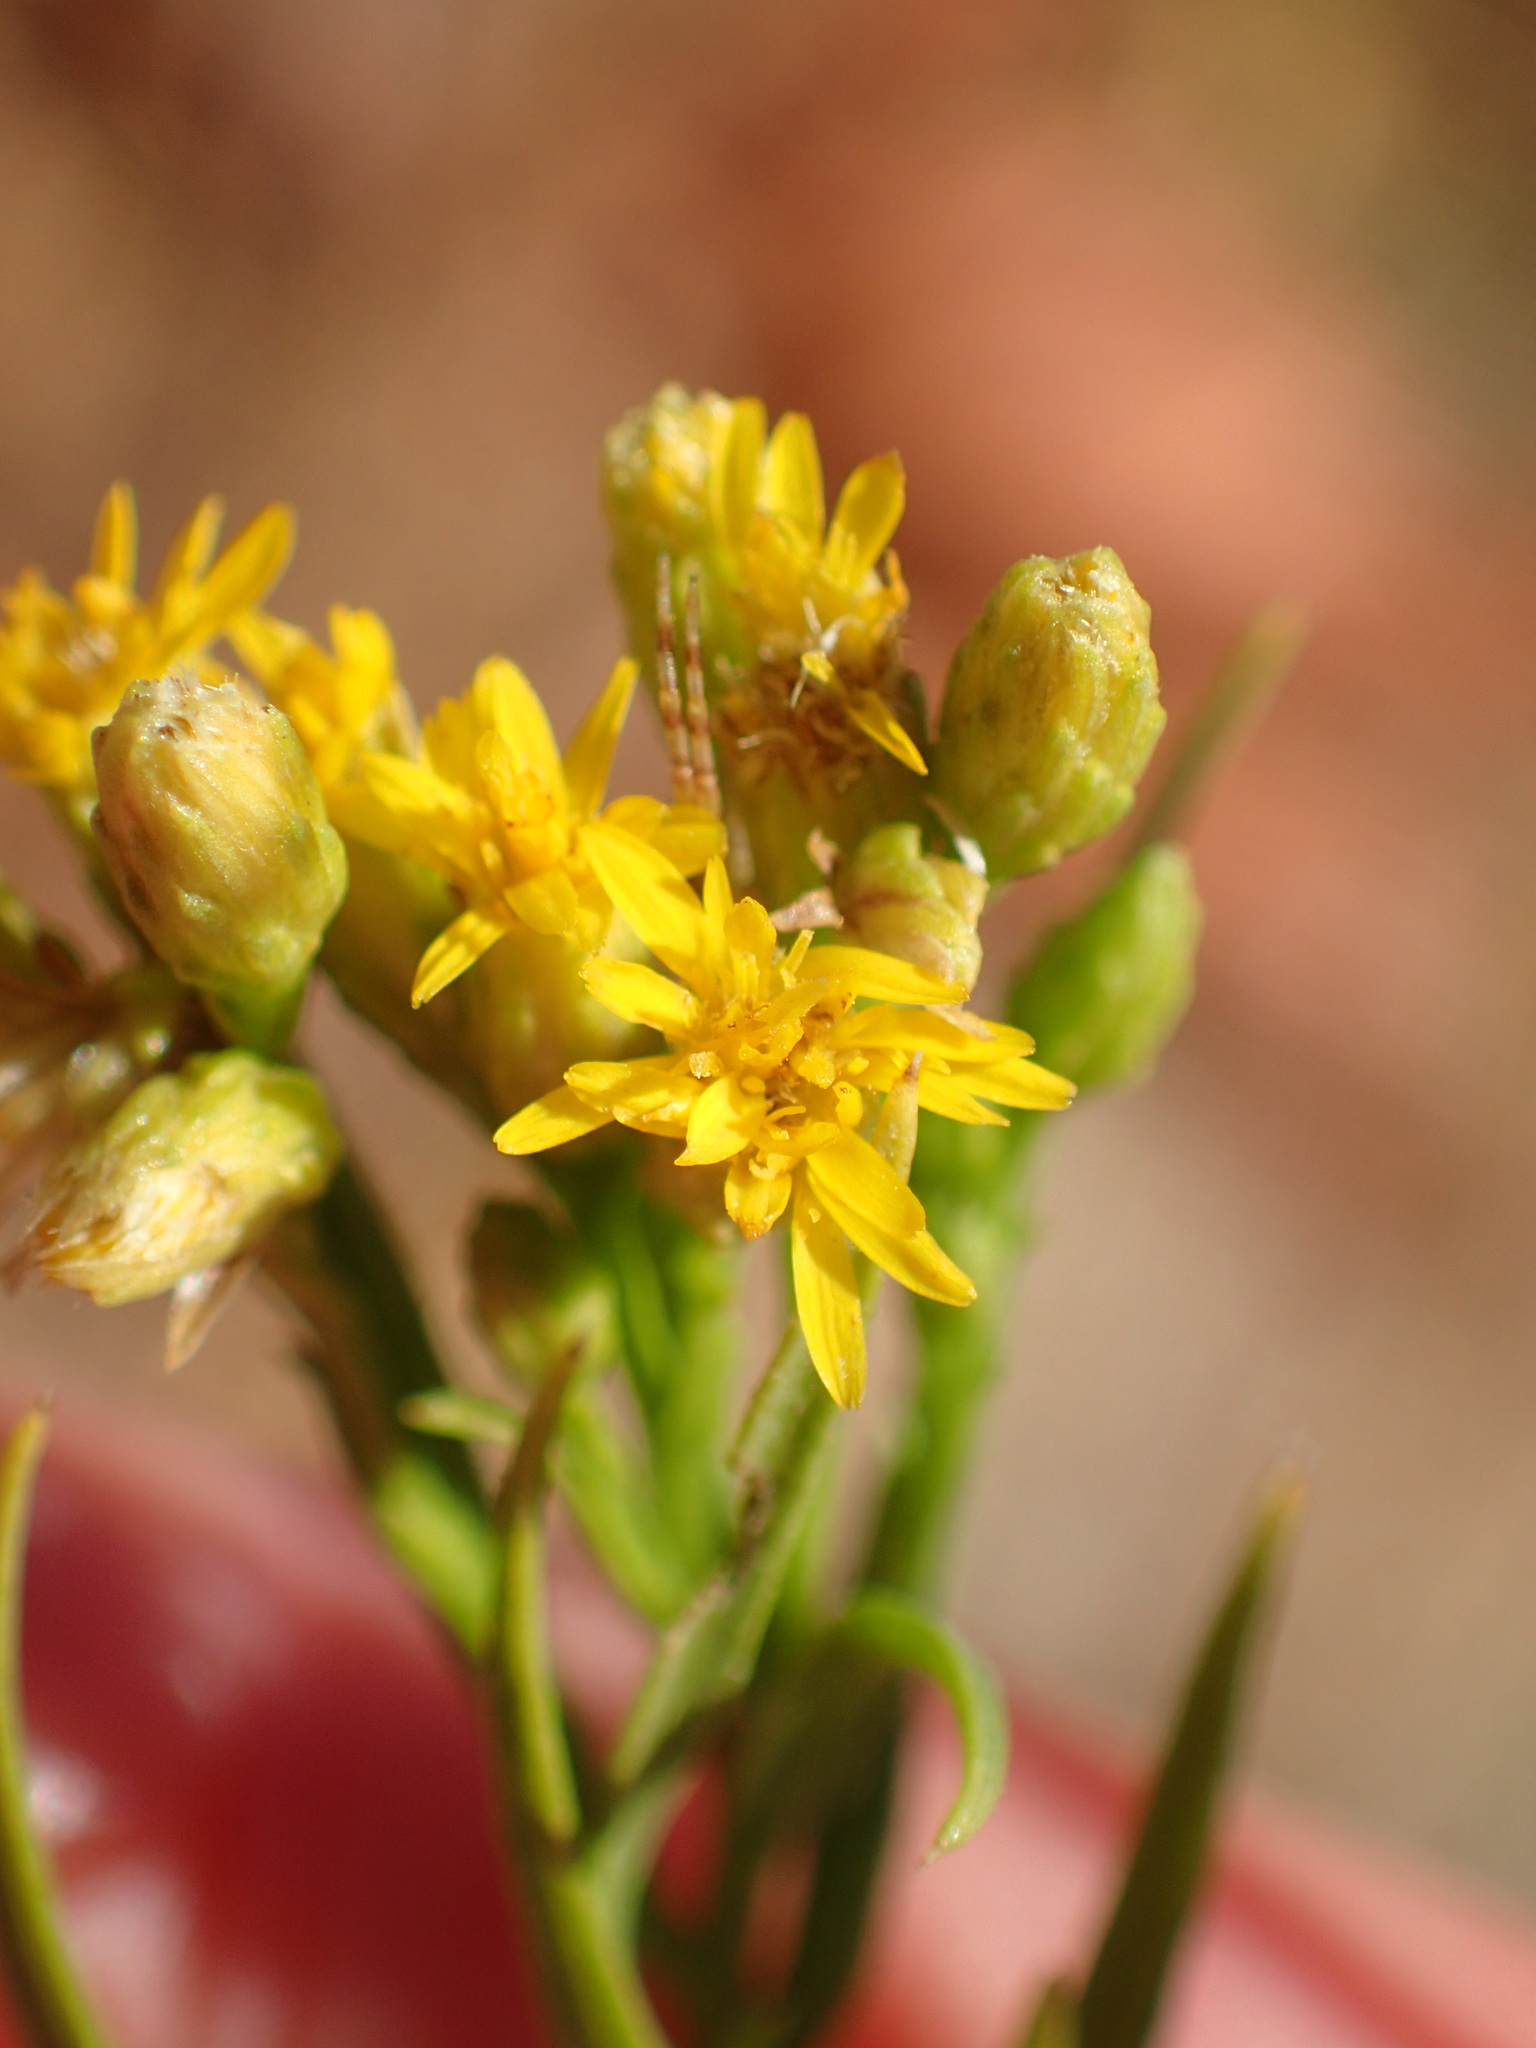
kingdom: Plantae
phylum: Tracheophyta
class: Magnoliopsida
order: Asterales
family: Asteraceae
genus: Euthamia
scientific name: Euthamia occidentalis
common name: Western goldentop
